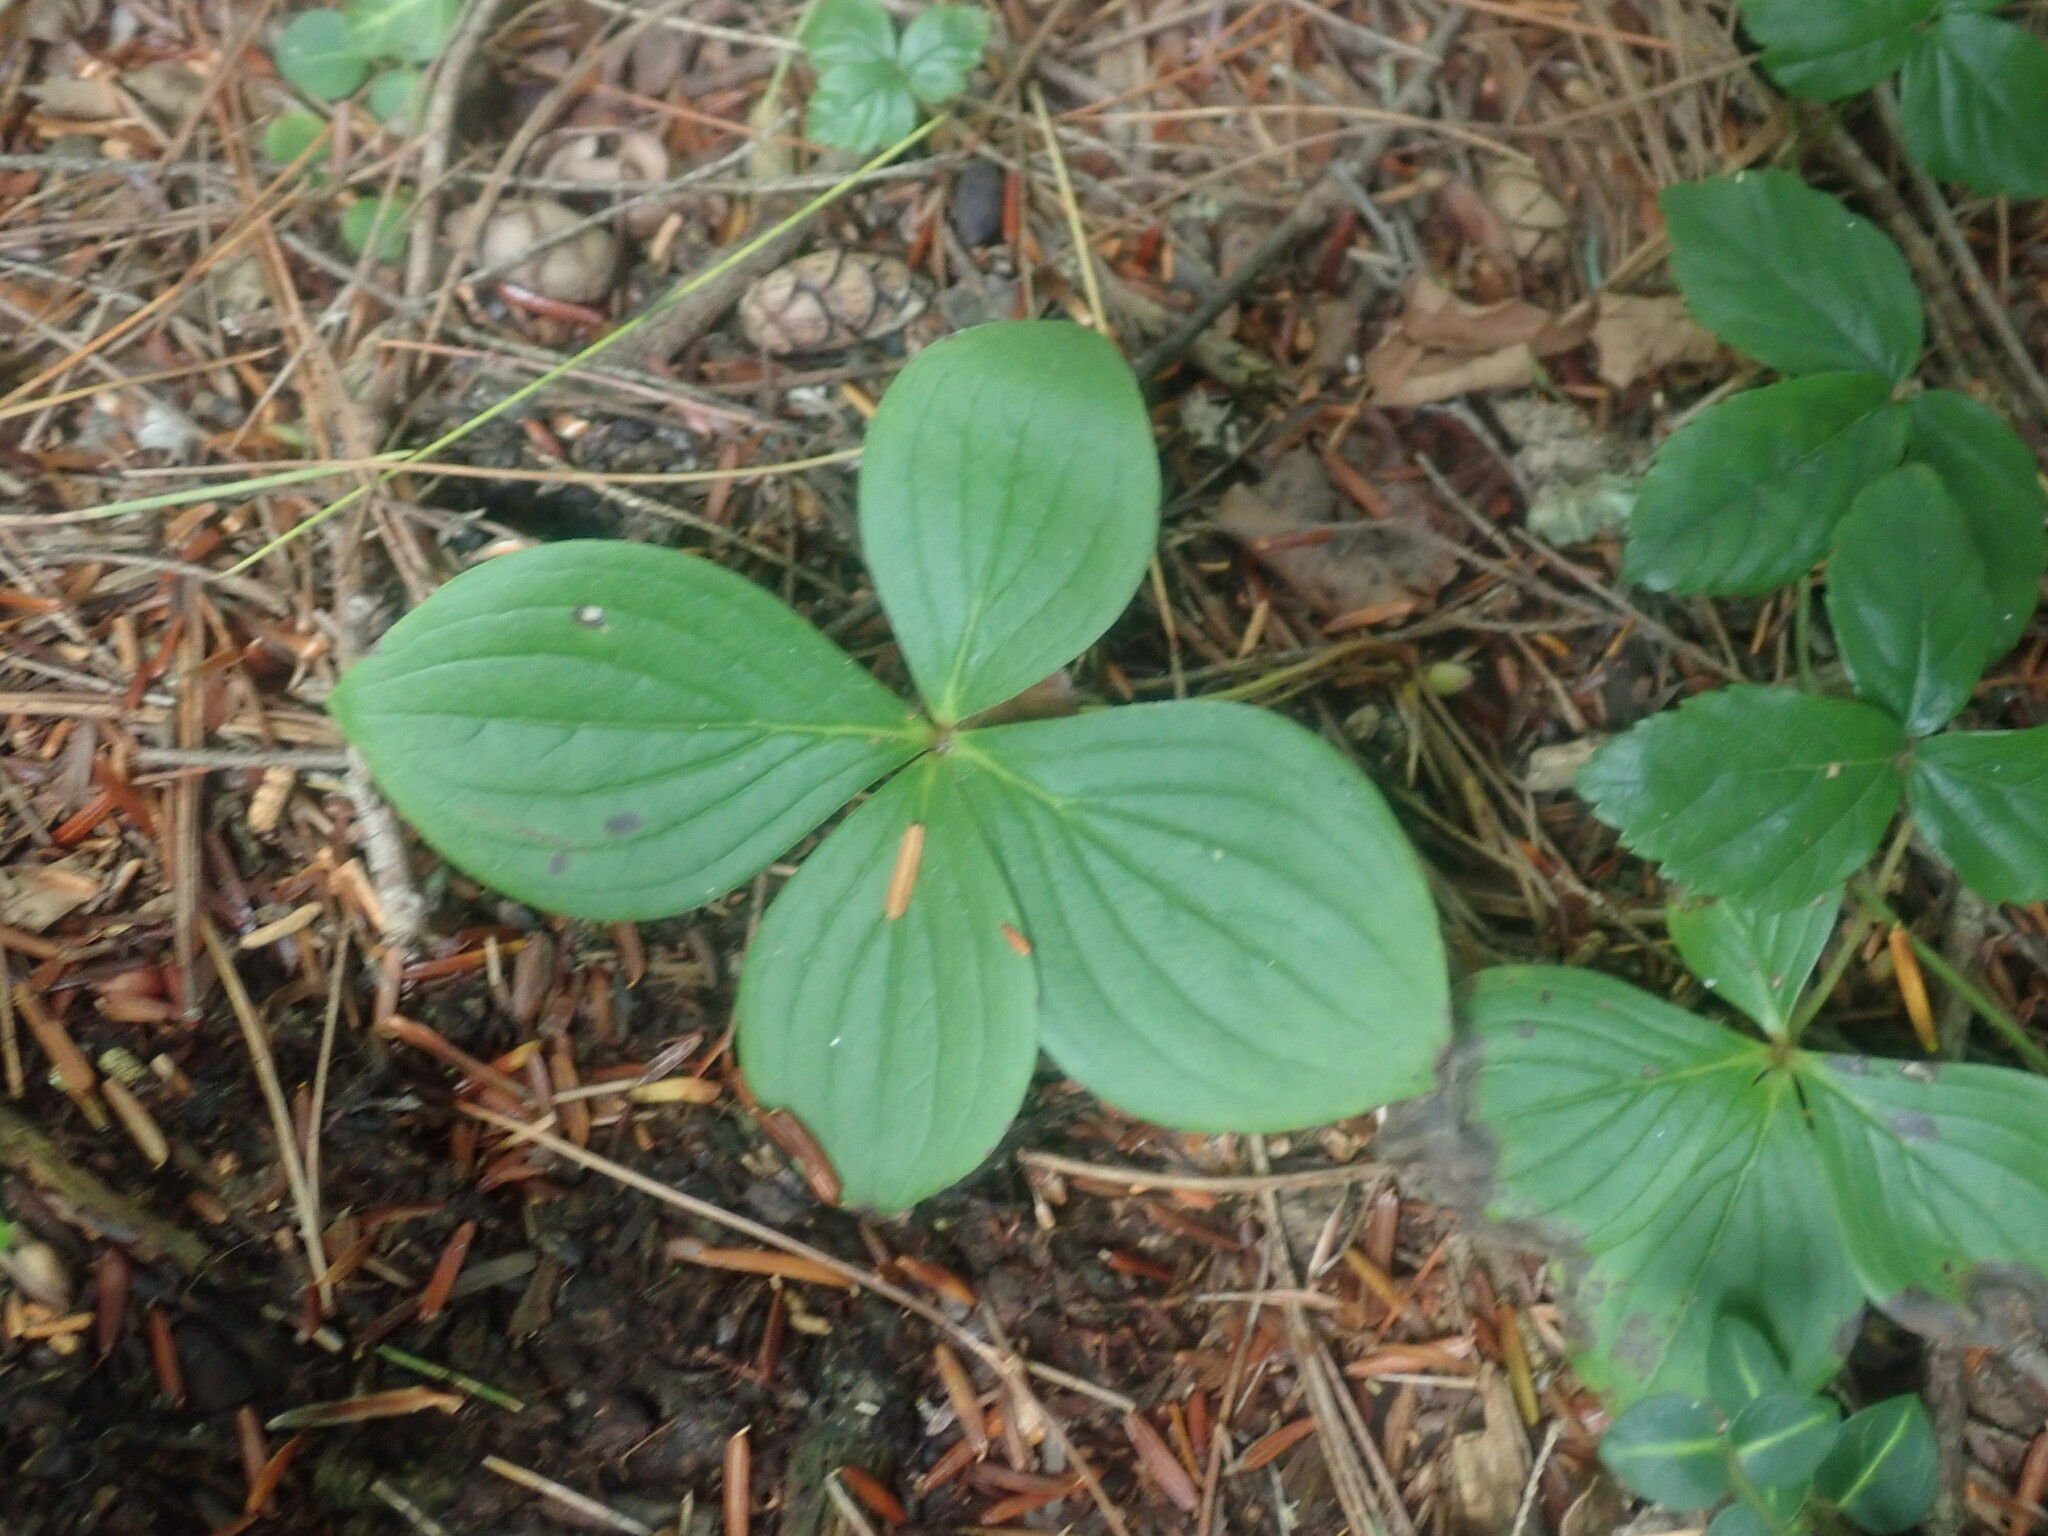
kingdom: Plantae
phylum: Tracheophyta
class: Magnoliopsida
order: Cornales
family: Cornaceae
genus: Cornus
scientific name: Cornus canadensis
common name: Creeping dogwood
